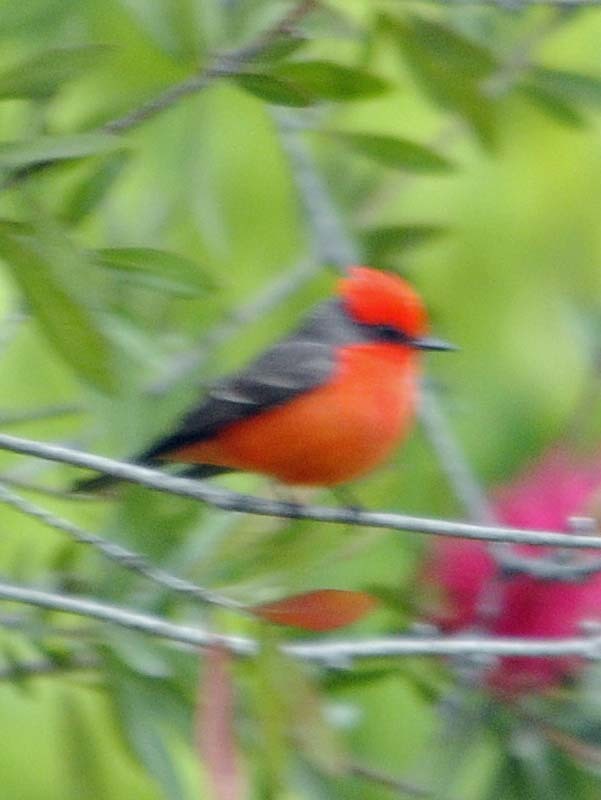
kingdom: Animalia
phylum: Chordata
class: Aves
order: Passeriformes
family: Tyrannidae
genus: Pyrocephalus
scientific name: Pyrocephalus rubinus
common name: Vermilion flycatcher
